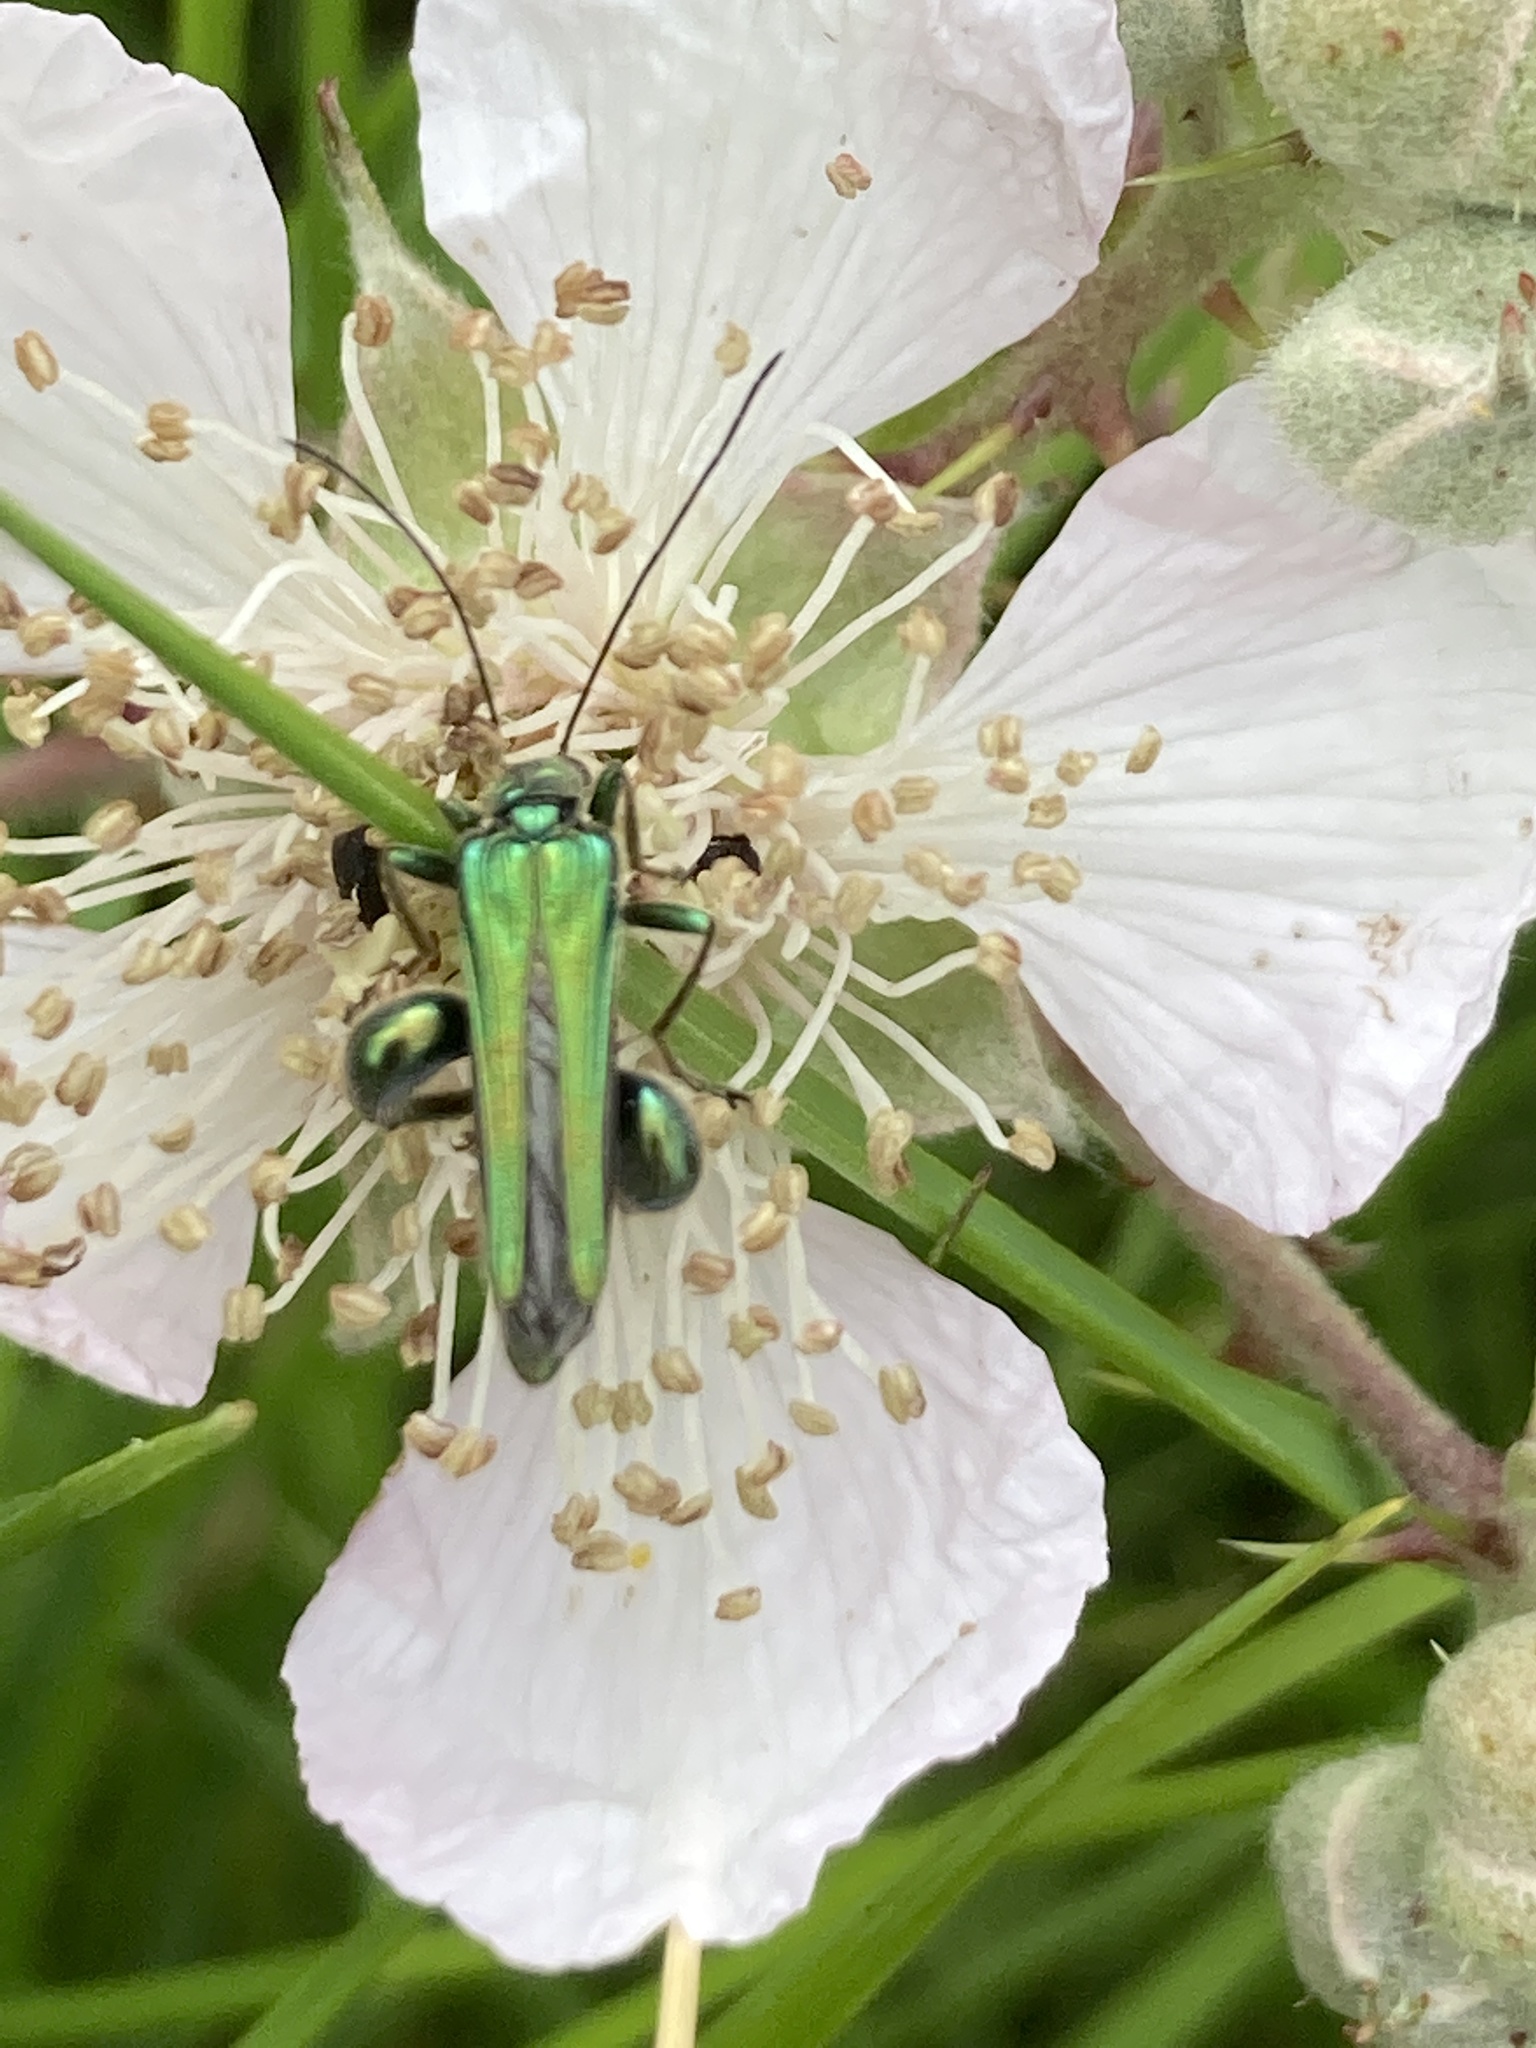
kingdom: Animalia
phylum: Arthropoda
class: Insecta
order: Coleoptera
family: Oedemeridae
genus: Oedemera
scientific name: Oedemera nobilis
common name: Swollen-thighed beetle
